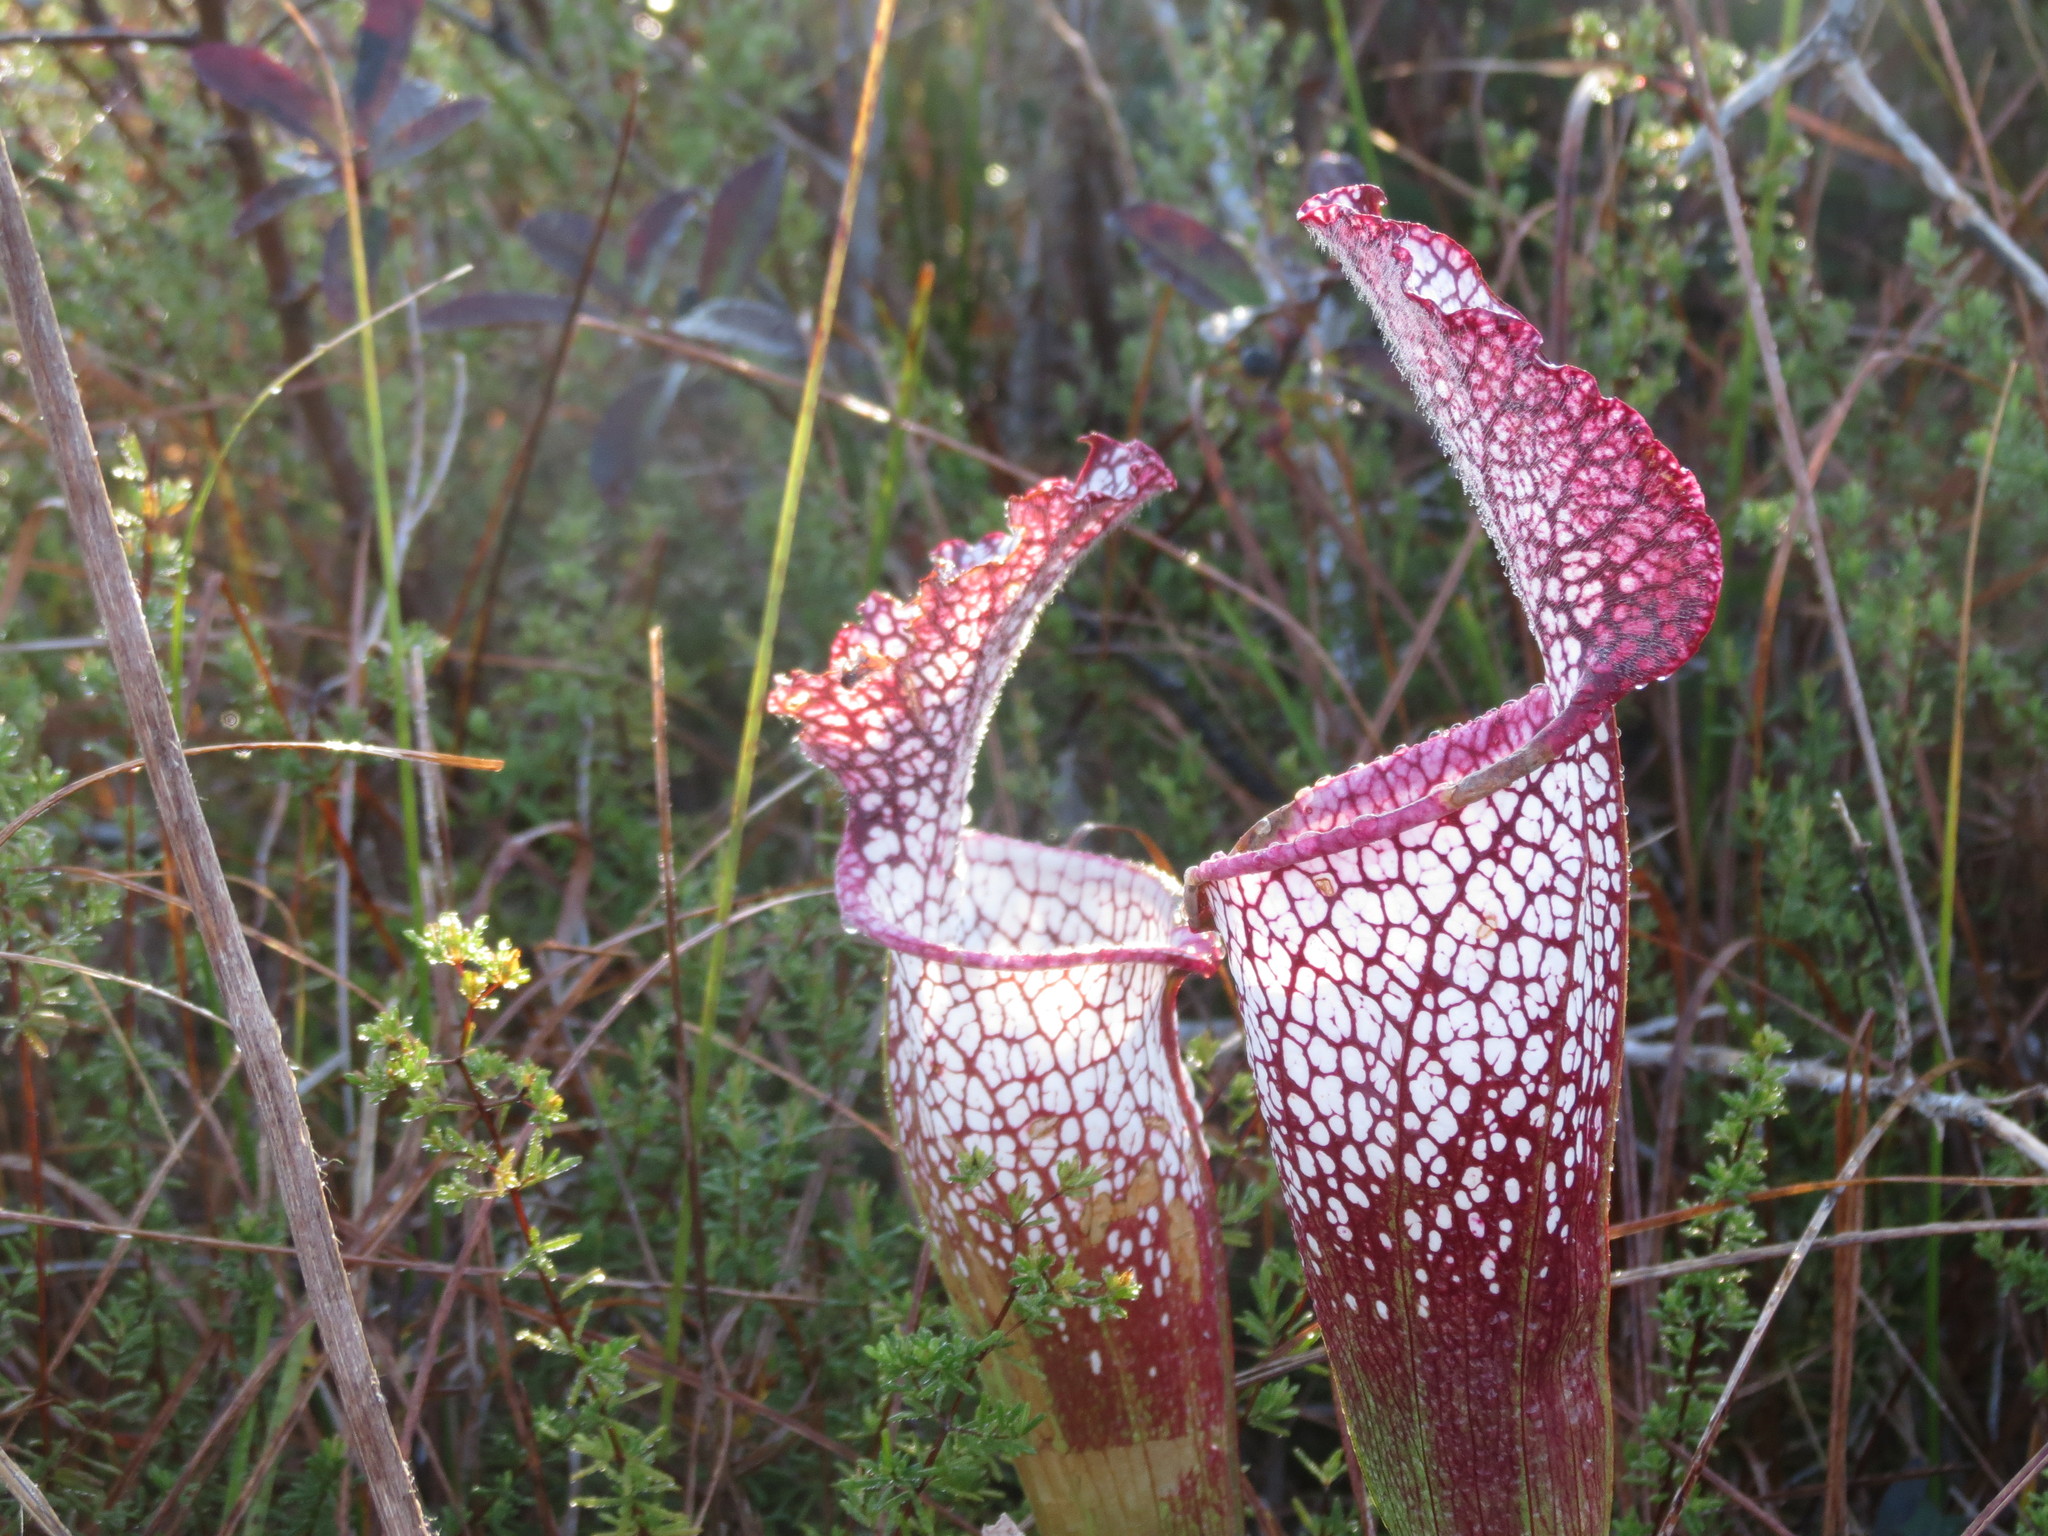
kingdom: Plantae
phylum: Tracheophyta
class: Magnoliopsida
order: Ericales
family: Sarraceniaceae
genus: Sarracenia
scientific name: Sarracenia leucophylla
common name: Purple trumpetleaf
